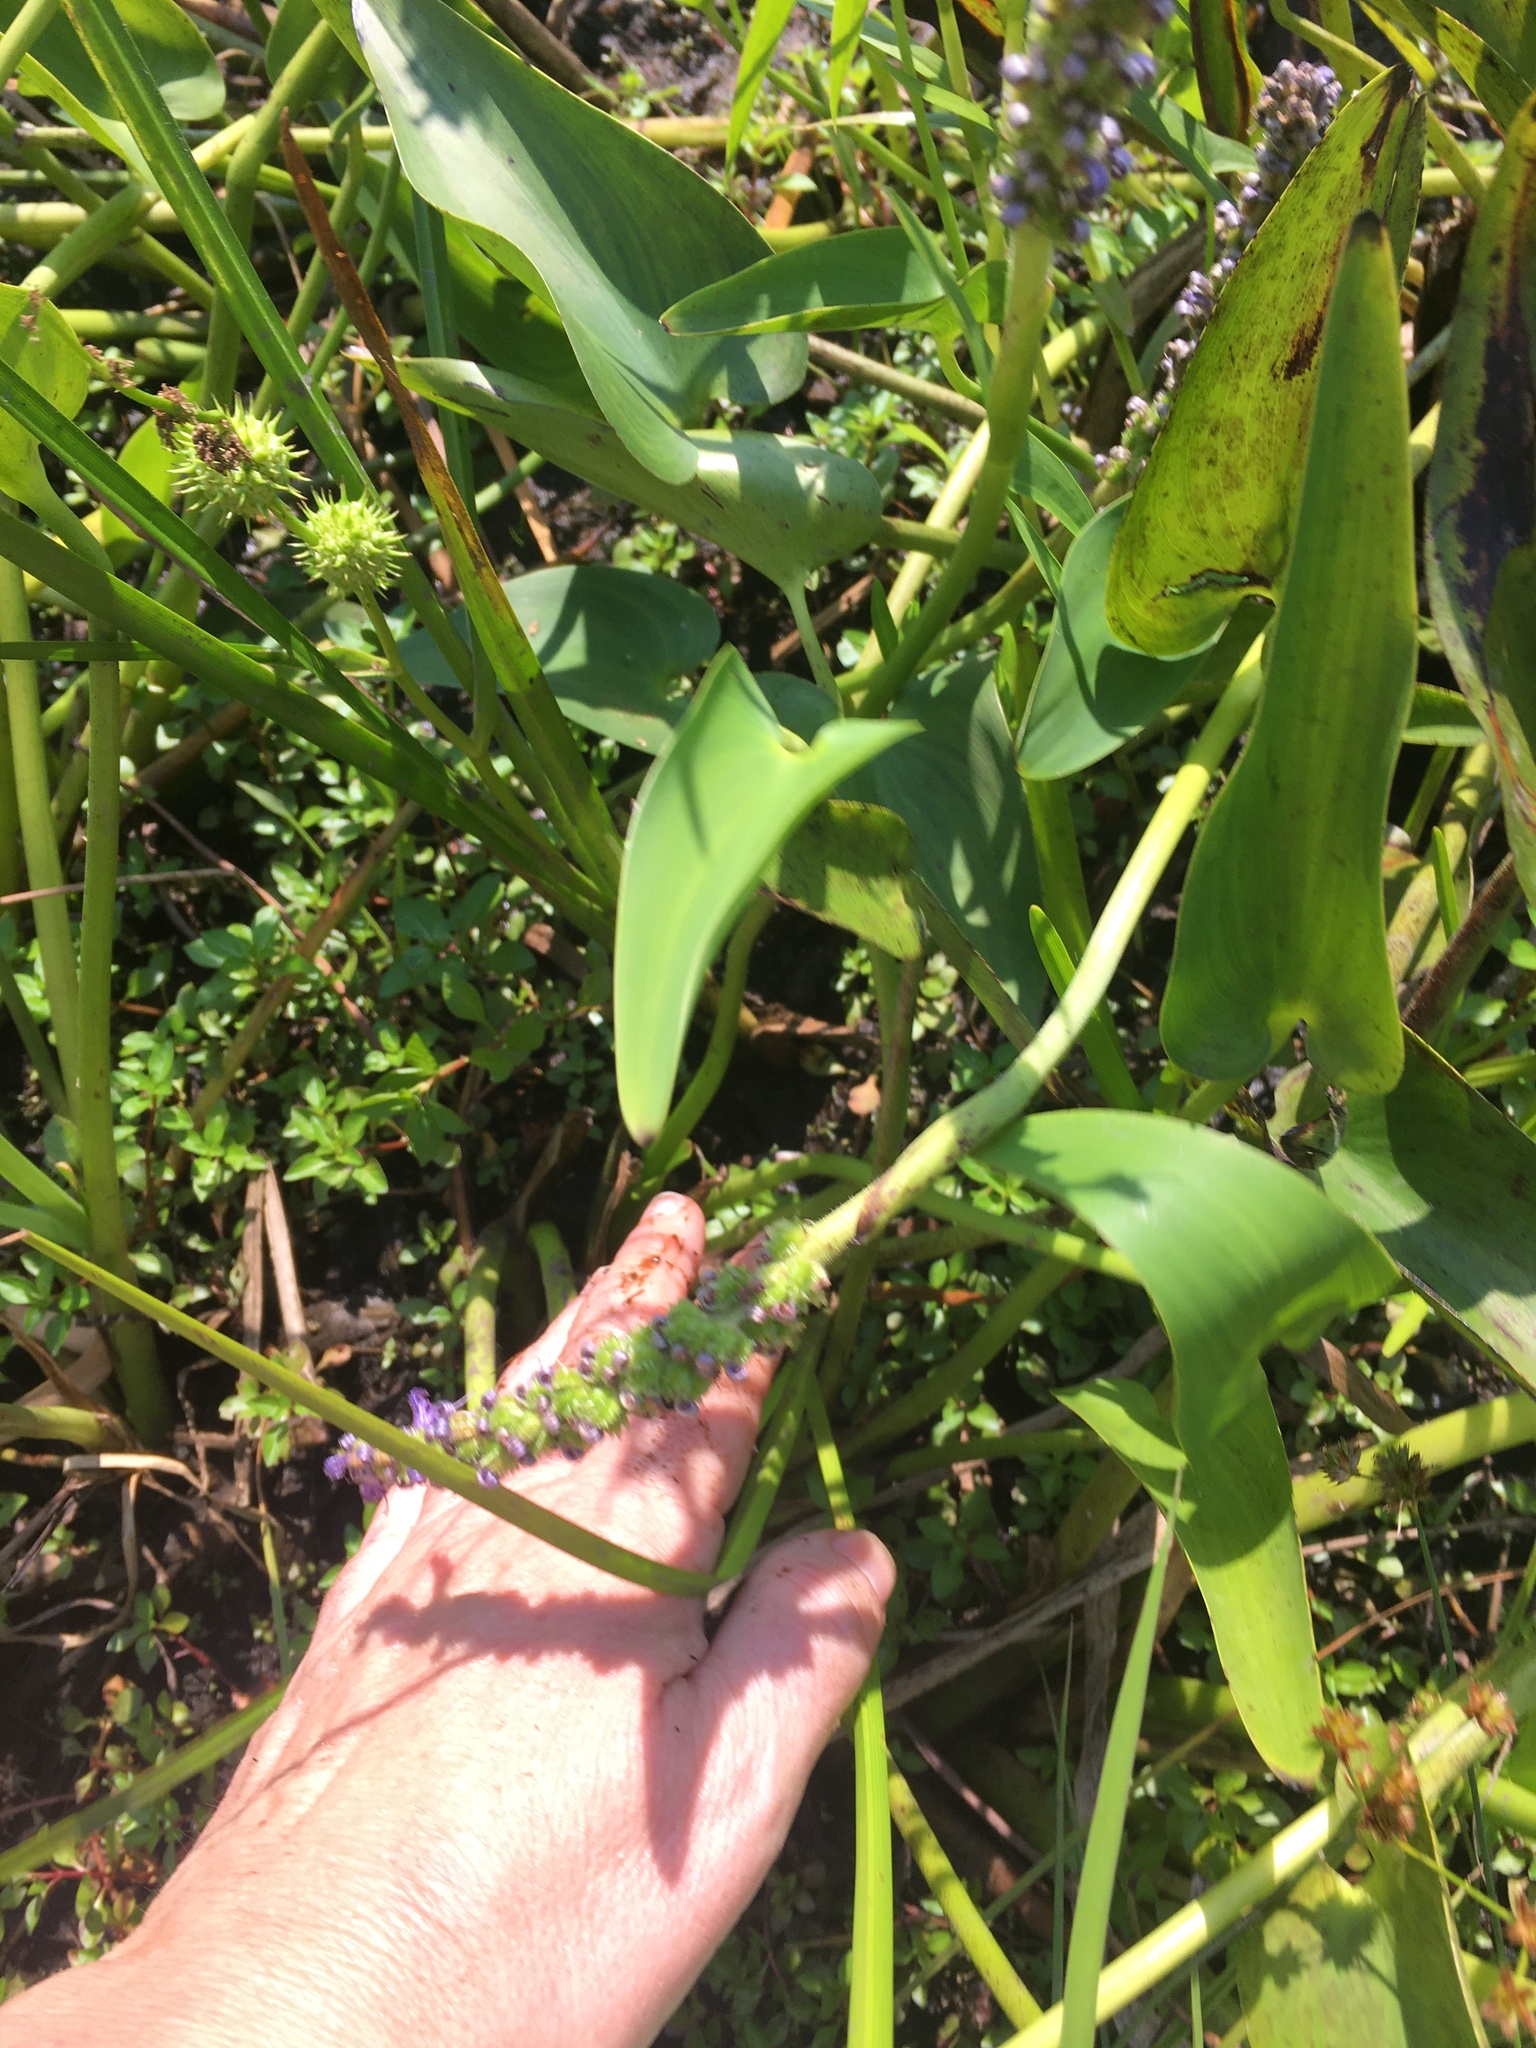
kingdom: Plantae
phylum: Tracheophyta
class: Liliopsida
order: Commelinales
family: Pontederiaceae
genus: Pontederia
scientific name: Pontederia cordata
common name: Pickerelweed
